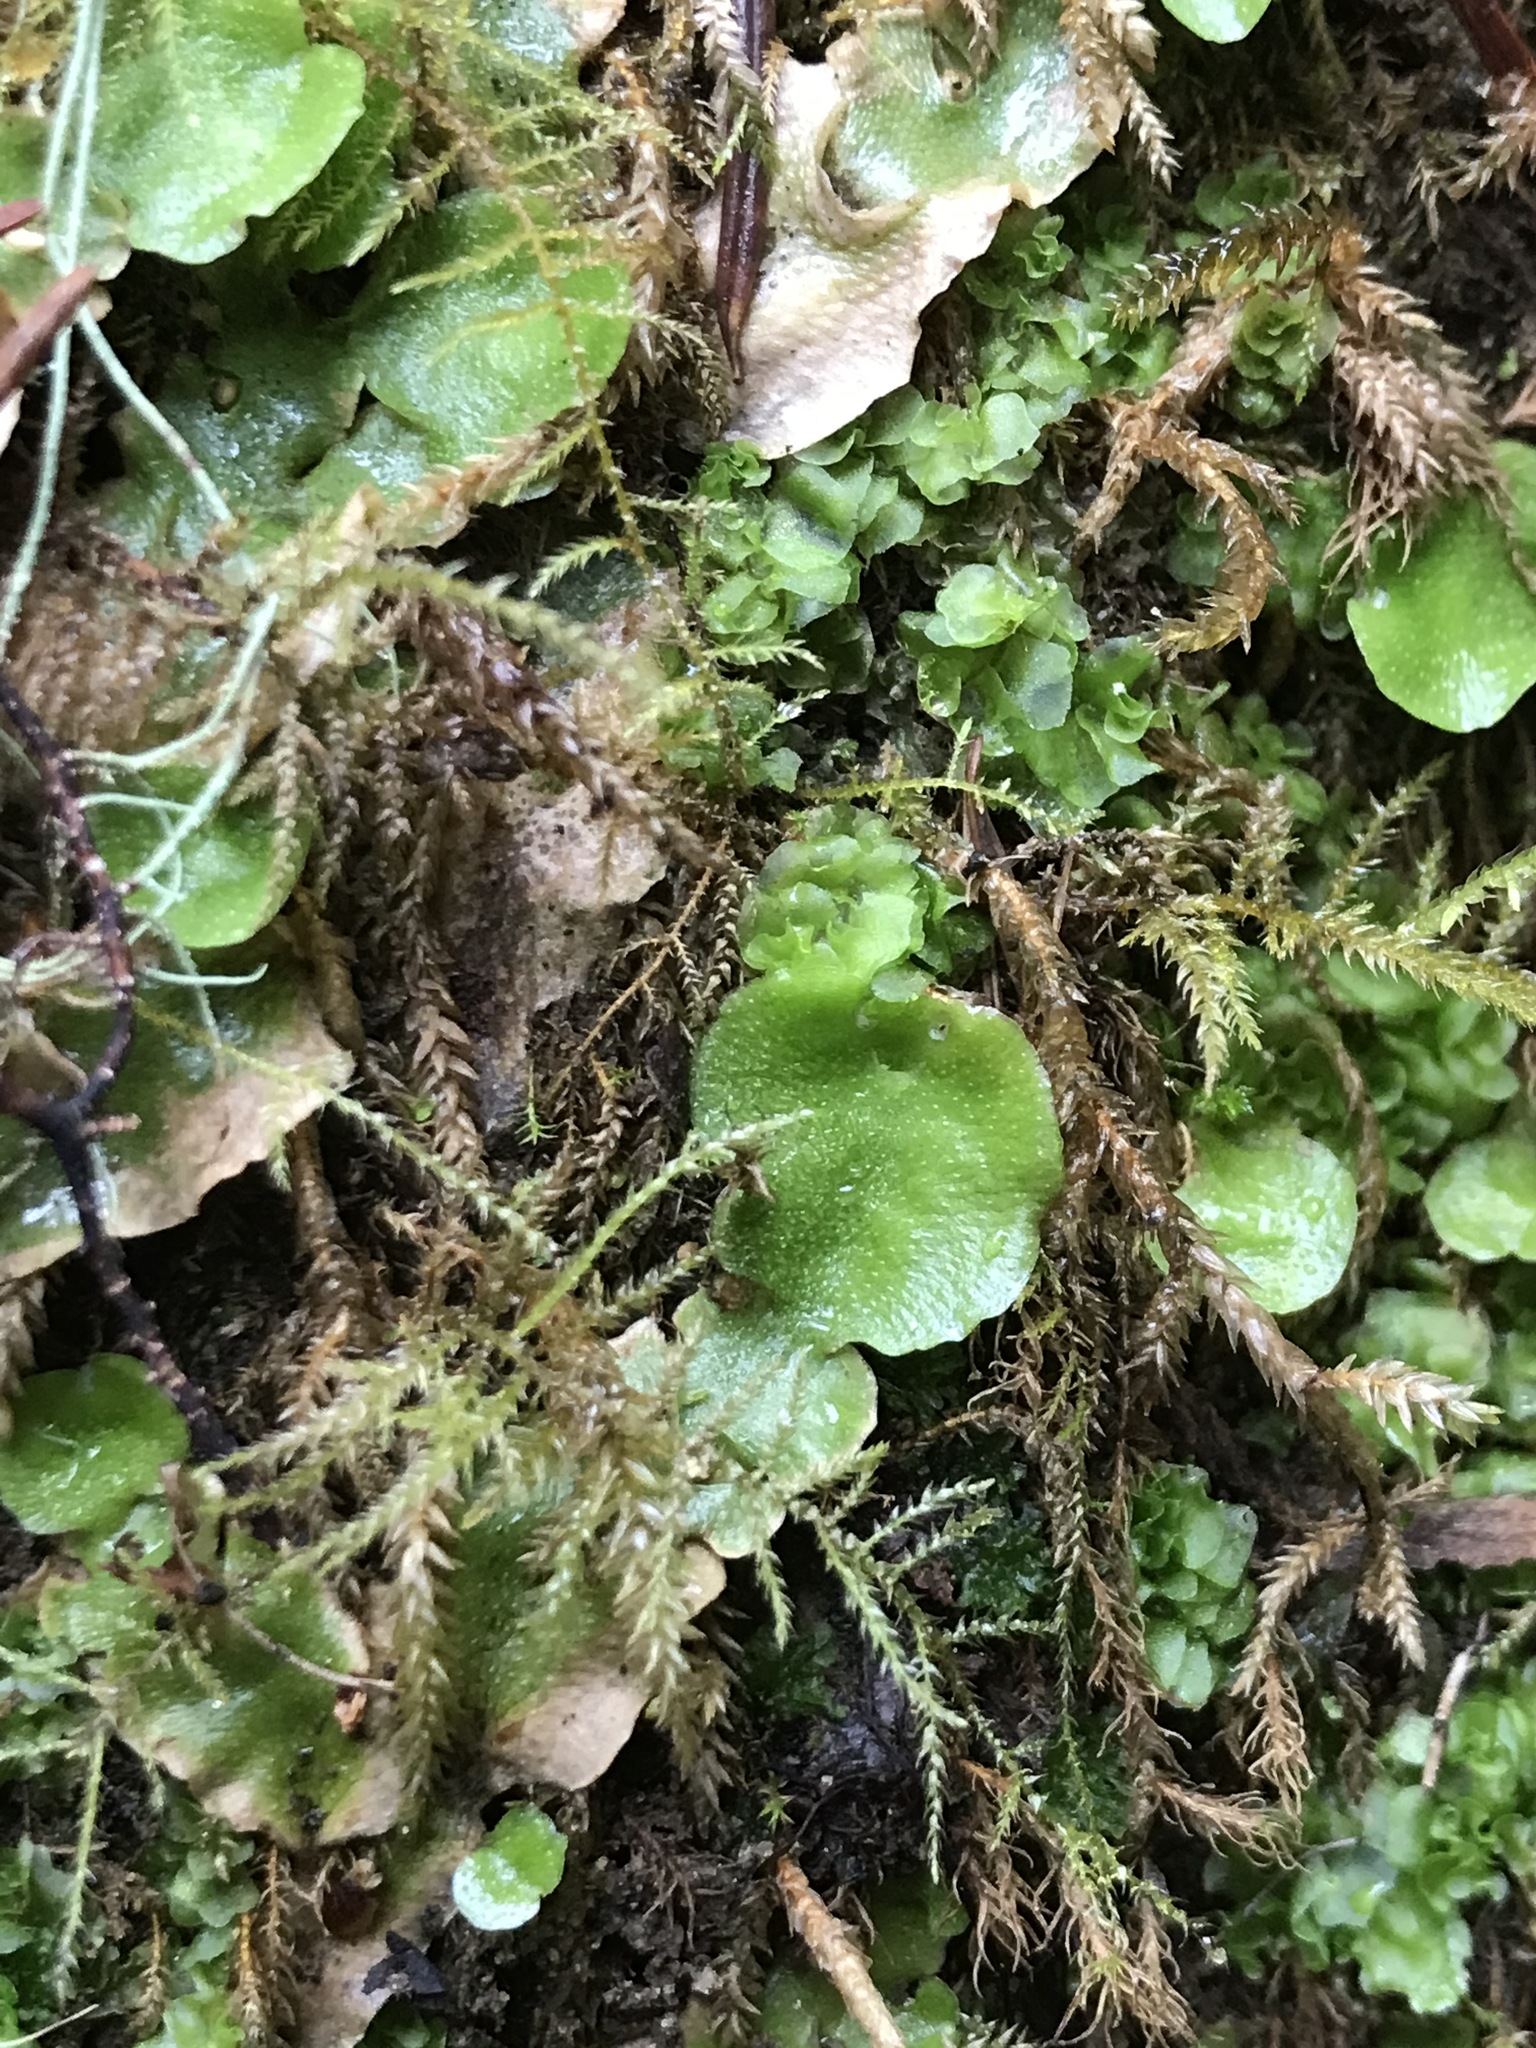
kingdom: Plantae
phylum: Marchantiophyta
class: Marchantiopsida
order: Lunulariales
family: Lunulariaceae
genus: Lunularia
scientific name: Lunularia cruciata
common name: Crescent-cup liverwort
